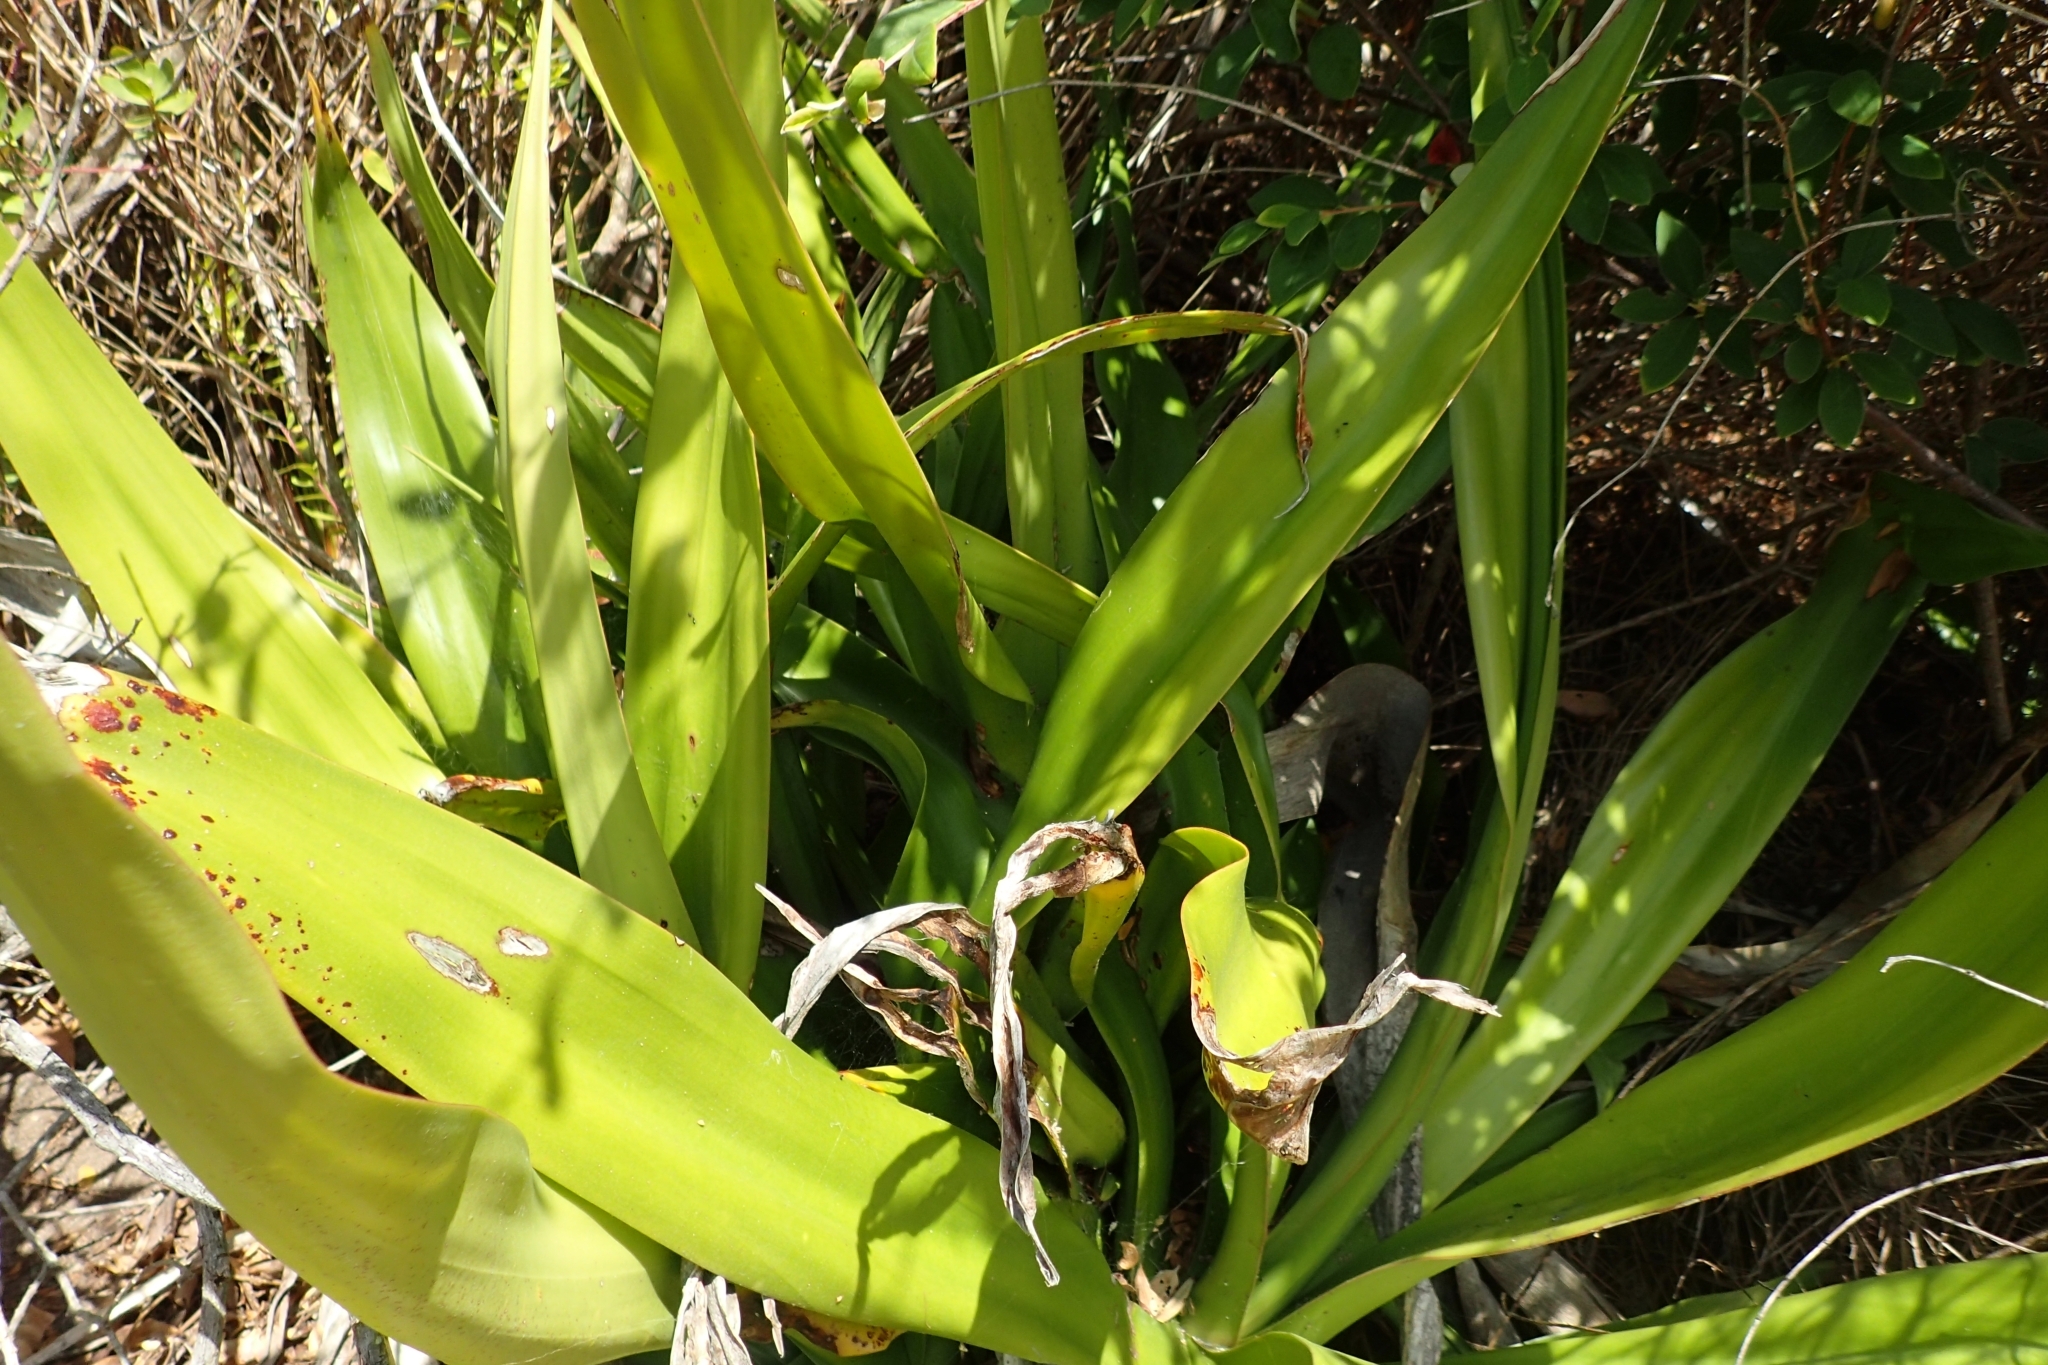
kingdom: Plantae
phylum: Tracheophyta
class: Liliopsida
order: Asparagales
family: Asparagaceae
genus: Furcraea
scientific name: Furcraea foetida
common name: Mauritius hemp
